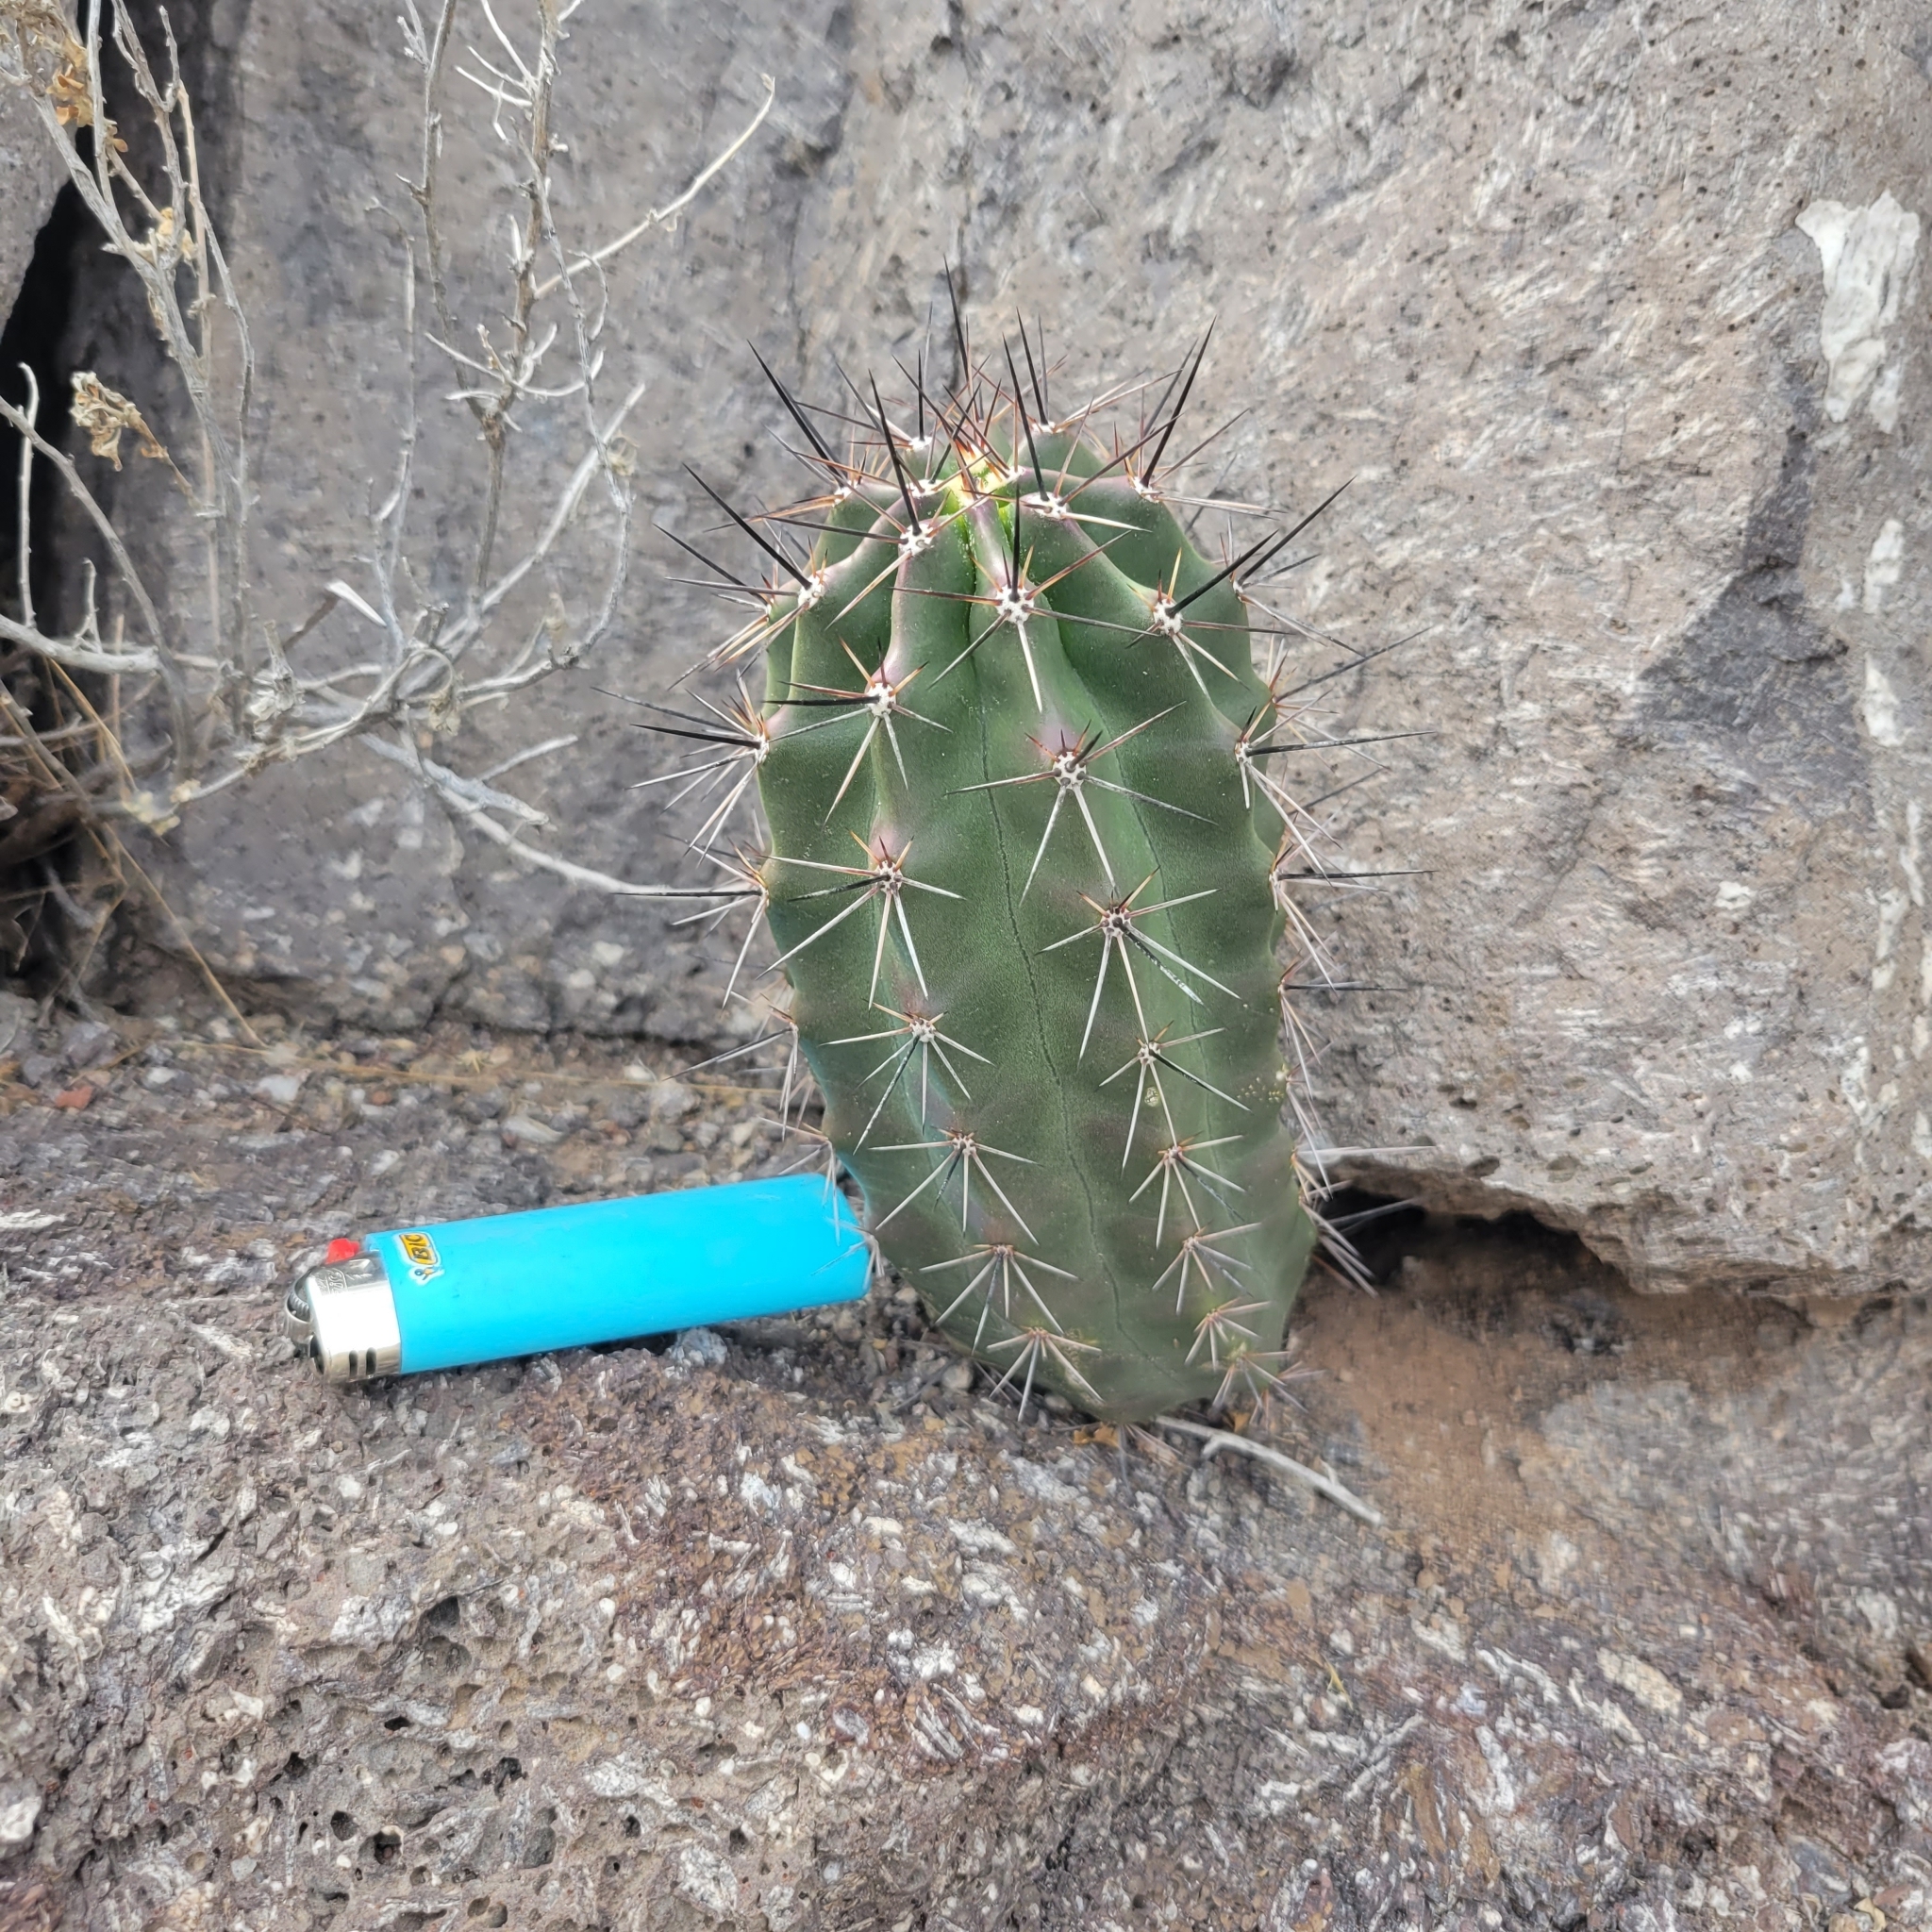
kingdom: Plantae
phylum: Tracheophyta
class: Magnoliopsida
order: Caryophyllales
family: Cactaceae
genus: Echinocereus
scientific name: Echinocereus coccineus
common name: Scarlet hedgehog cactus
